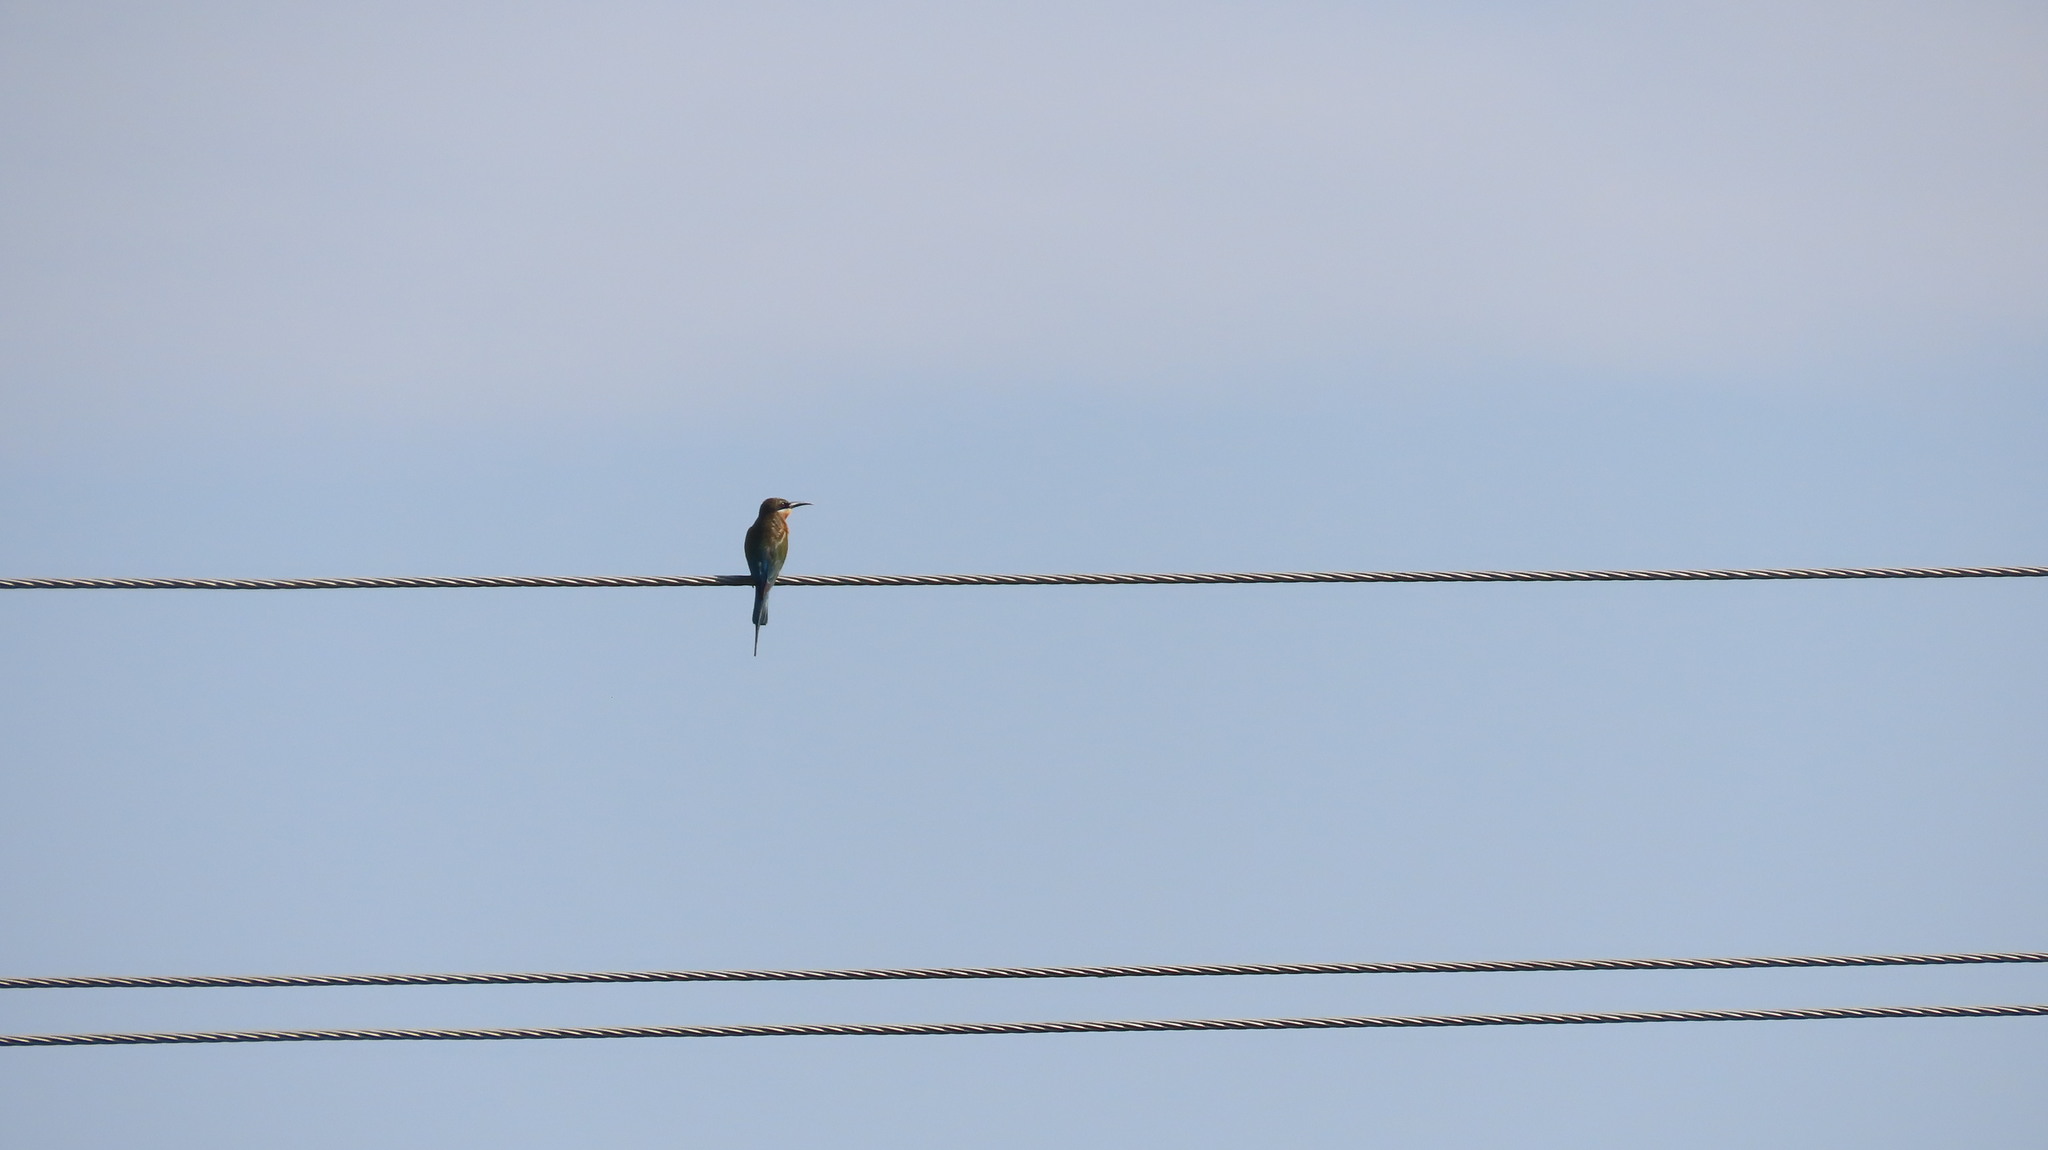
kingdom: Animalia
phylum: Chordata
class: Aves
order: Coraciiformes
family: Meropidae
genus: Merops
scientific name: Merops philippinus
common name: Blue-tailed bee-eater
